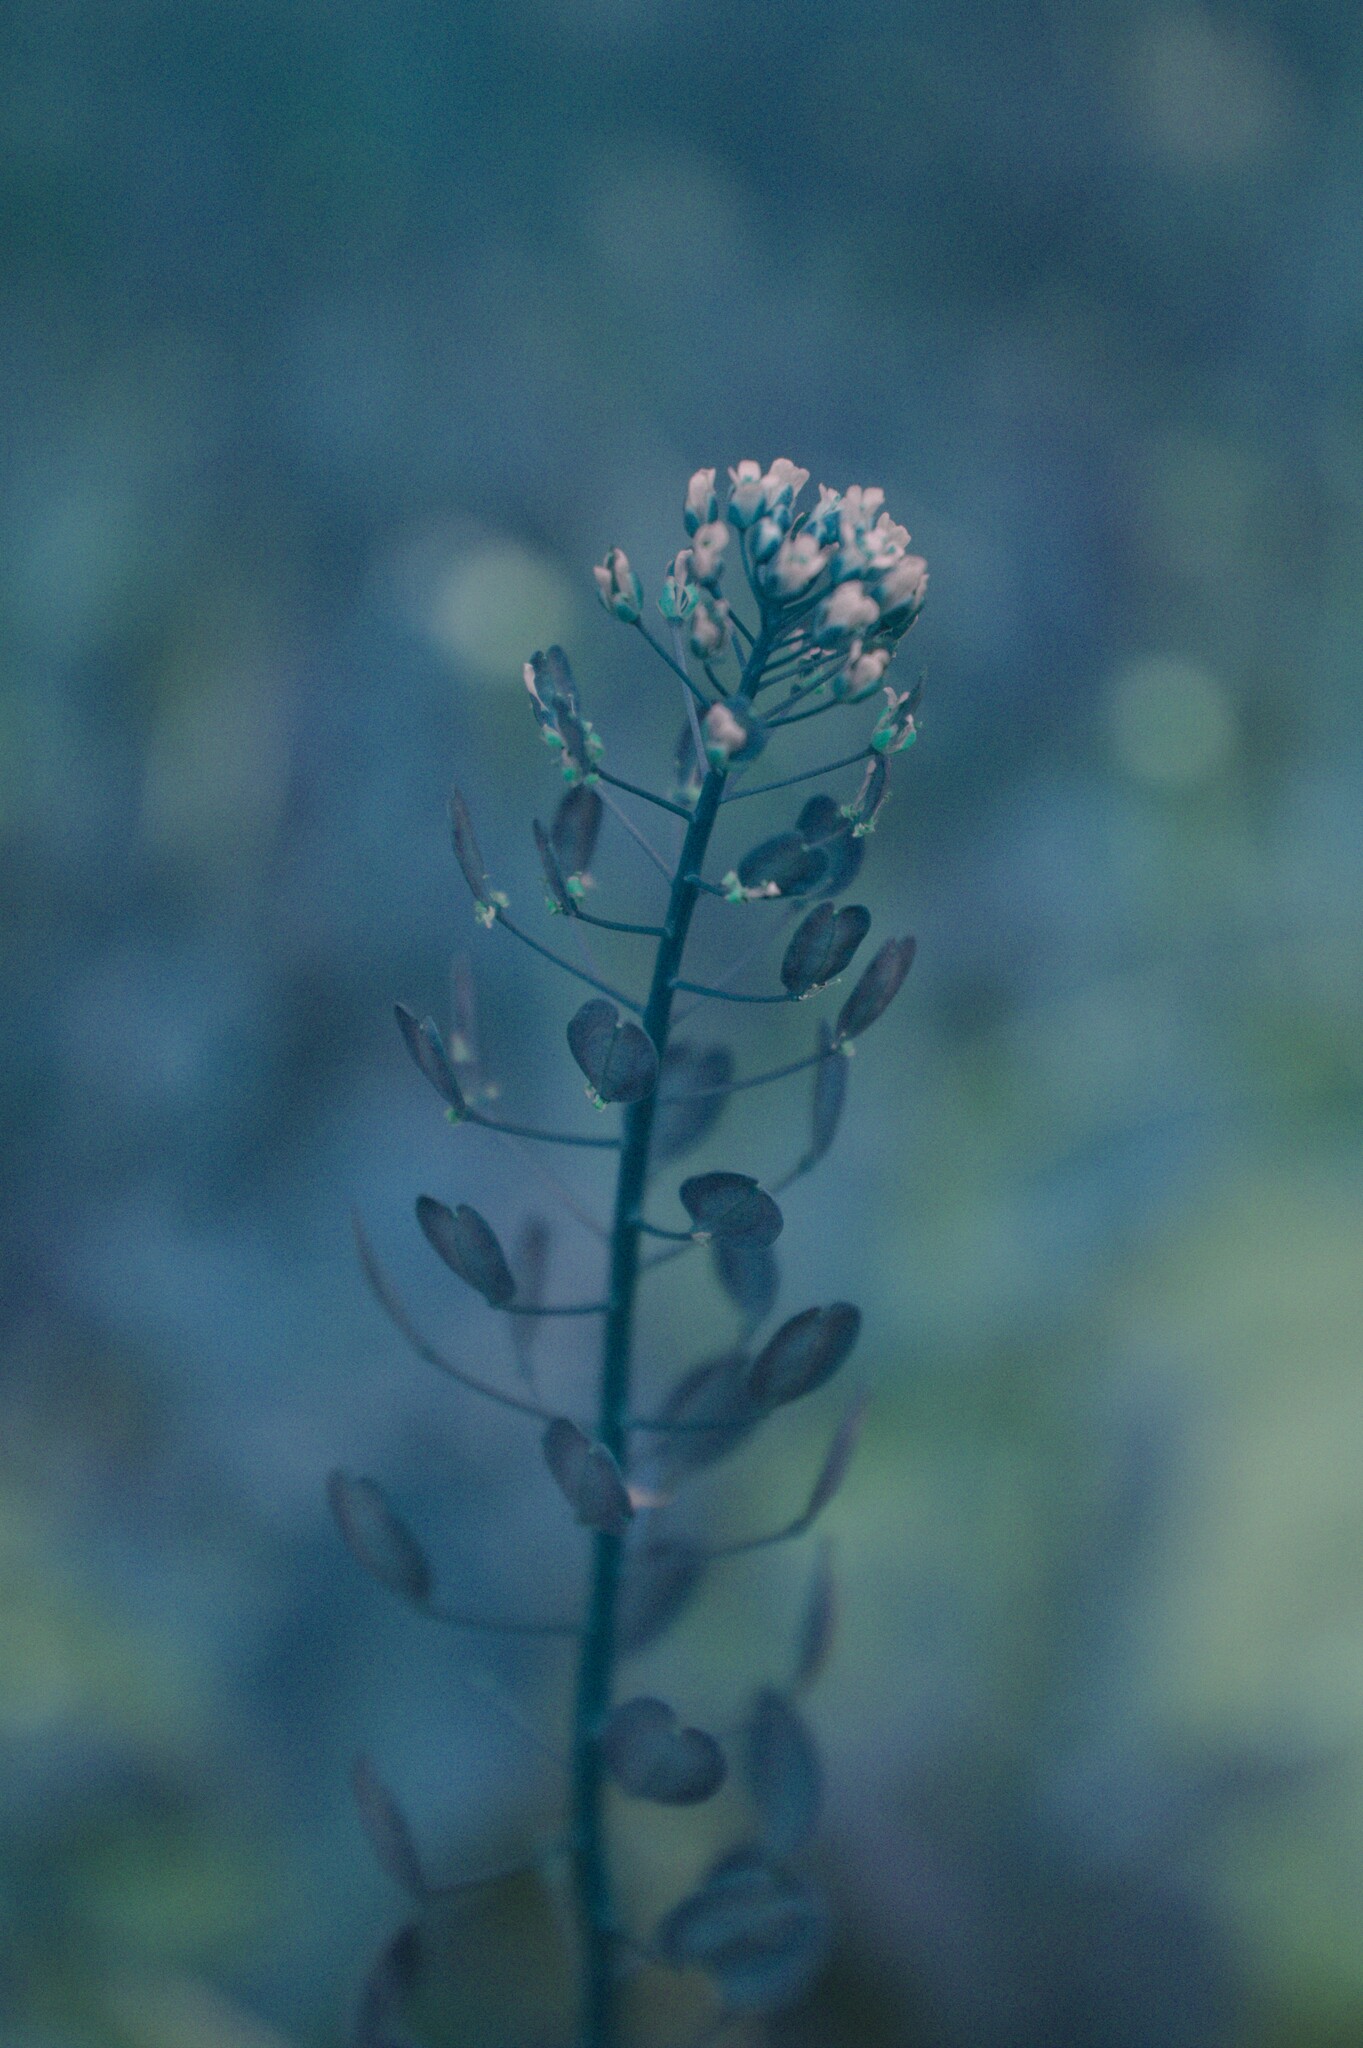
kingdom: Plantae
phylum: Tracheophyta
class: Magnoliopsida
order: Brassicales
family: Brassicaceae
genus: Thlaspi
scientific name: Thlaspi arvense
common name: Field pennycress
